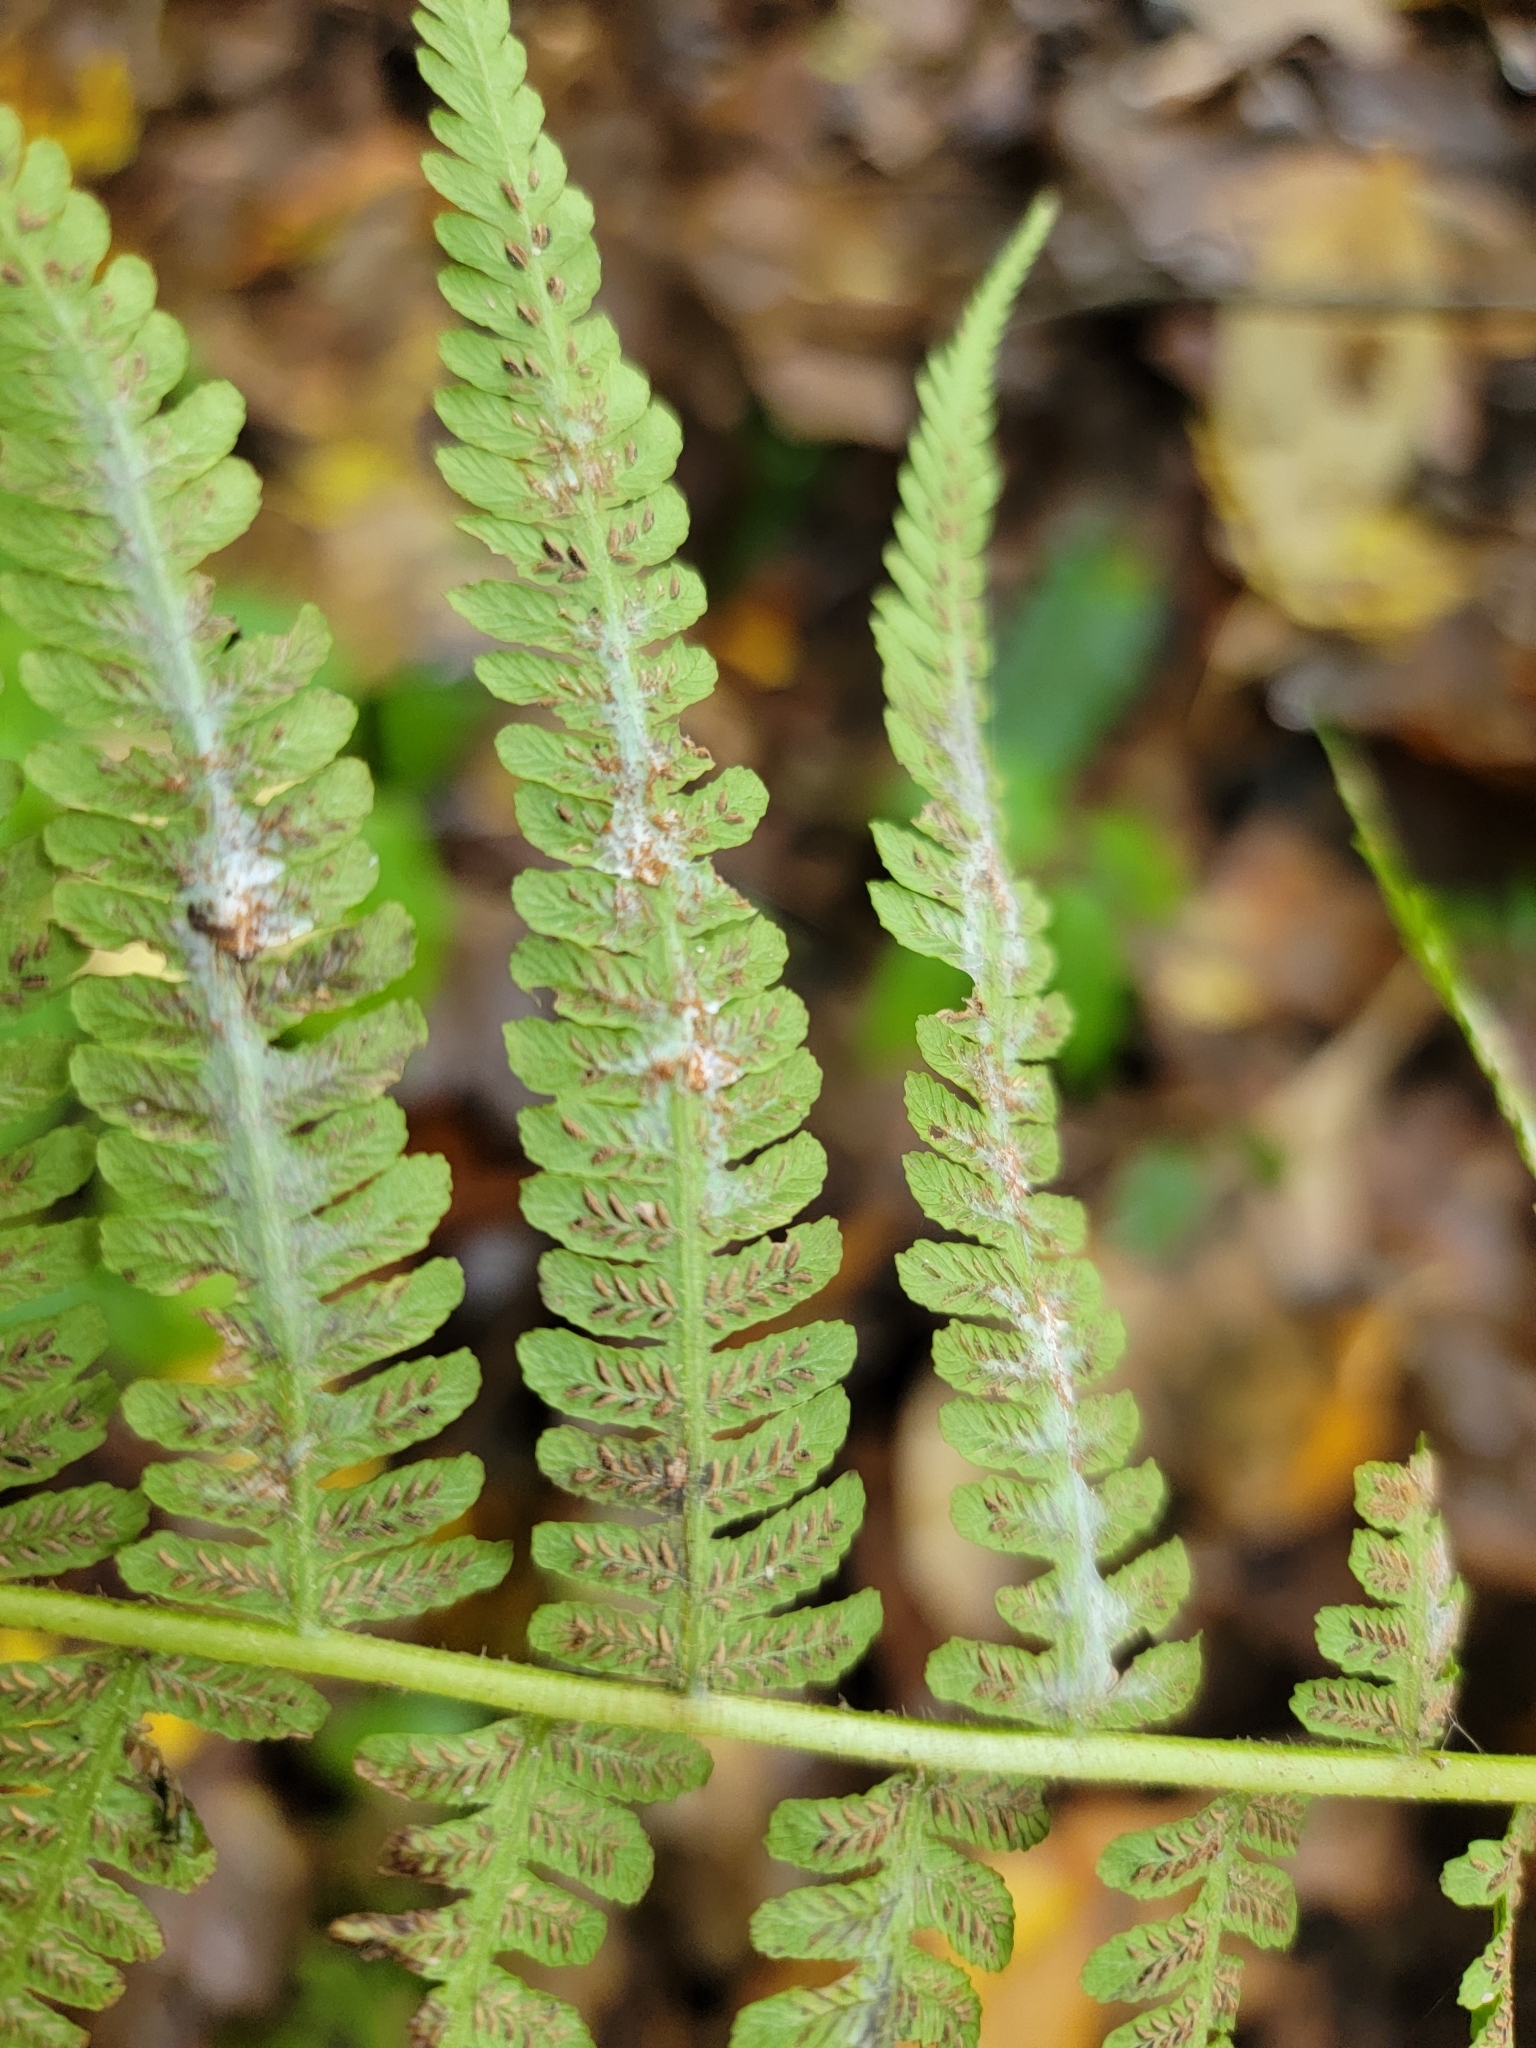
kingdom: Plantae
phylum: Tracheophyta
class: Polypodiopsida
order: Polypodiales
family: Athyriaceae
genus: Deparia
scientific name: Deparia acrostichoides
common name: Silver false spleenwort
